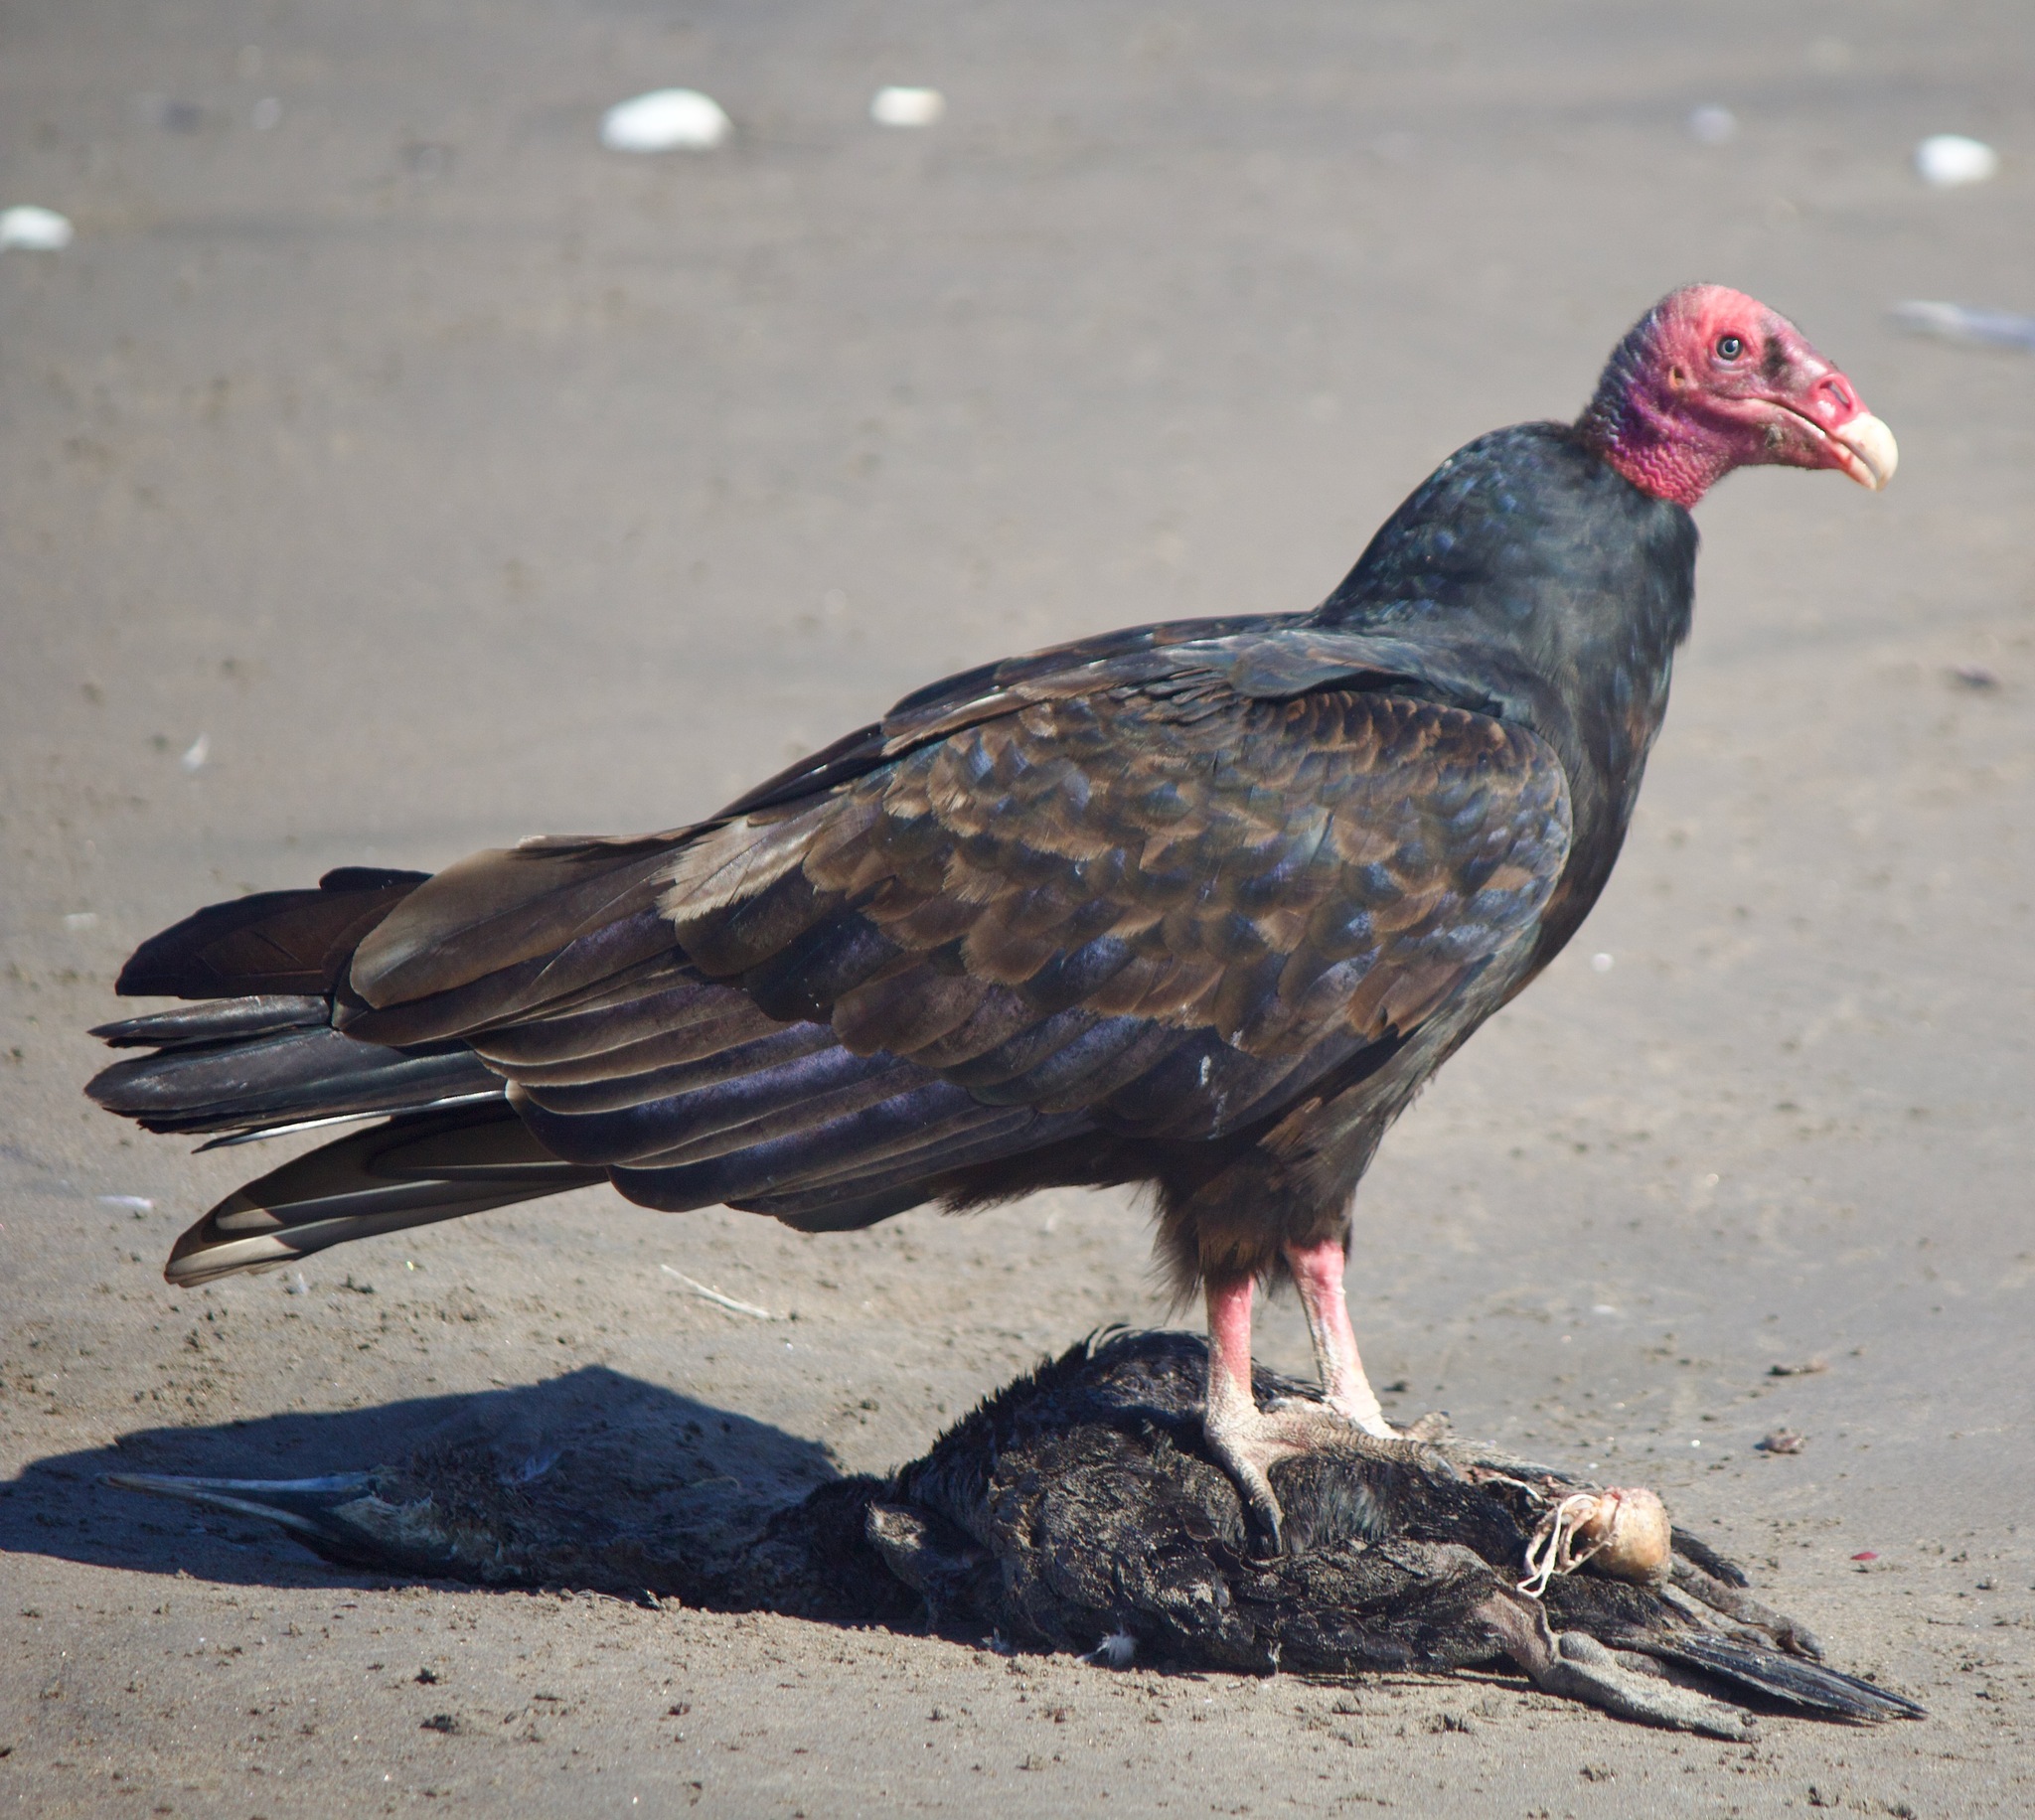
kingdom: Animalia
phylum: Chordata
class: Aves
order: Accipitriformes
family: Cathartidae
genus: Cathartes
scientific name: Cathartes aura
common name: Turkey vulture
